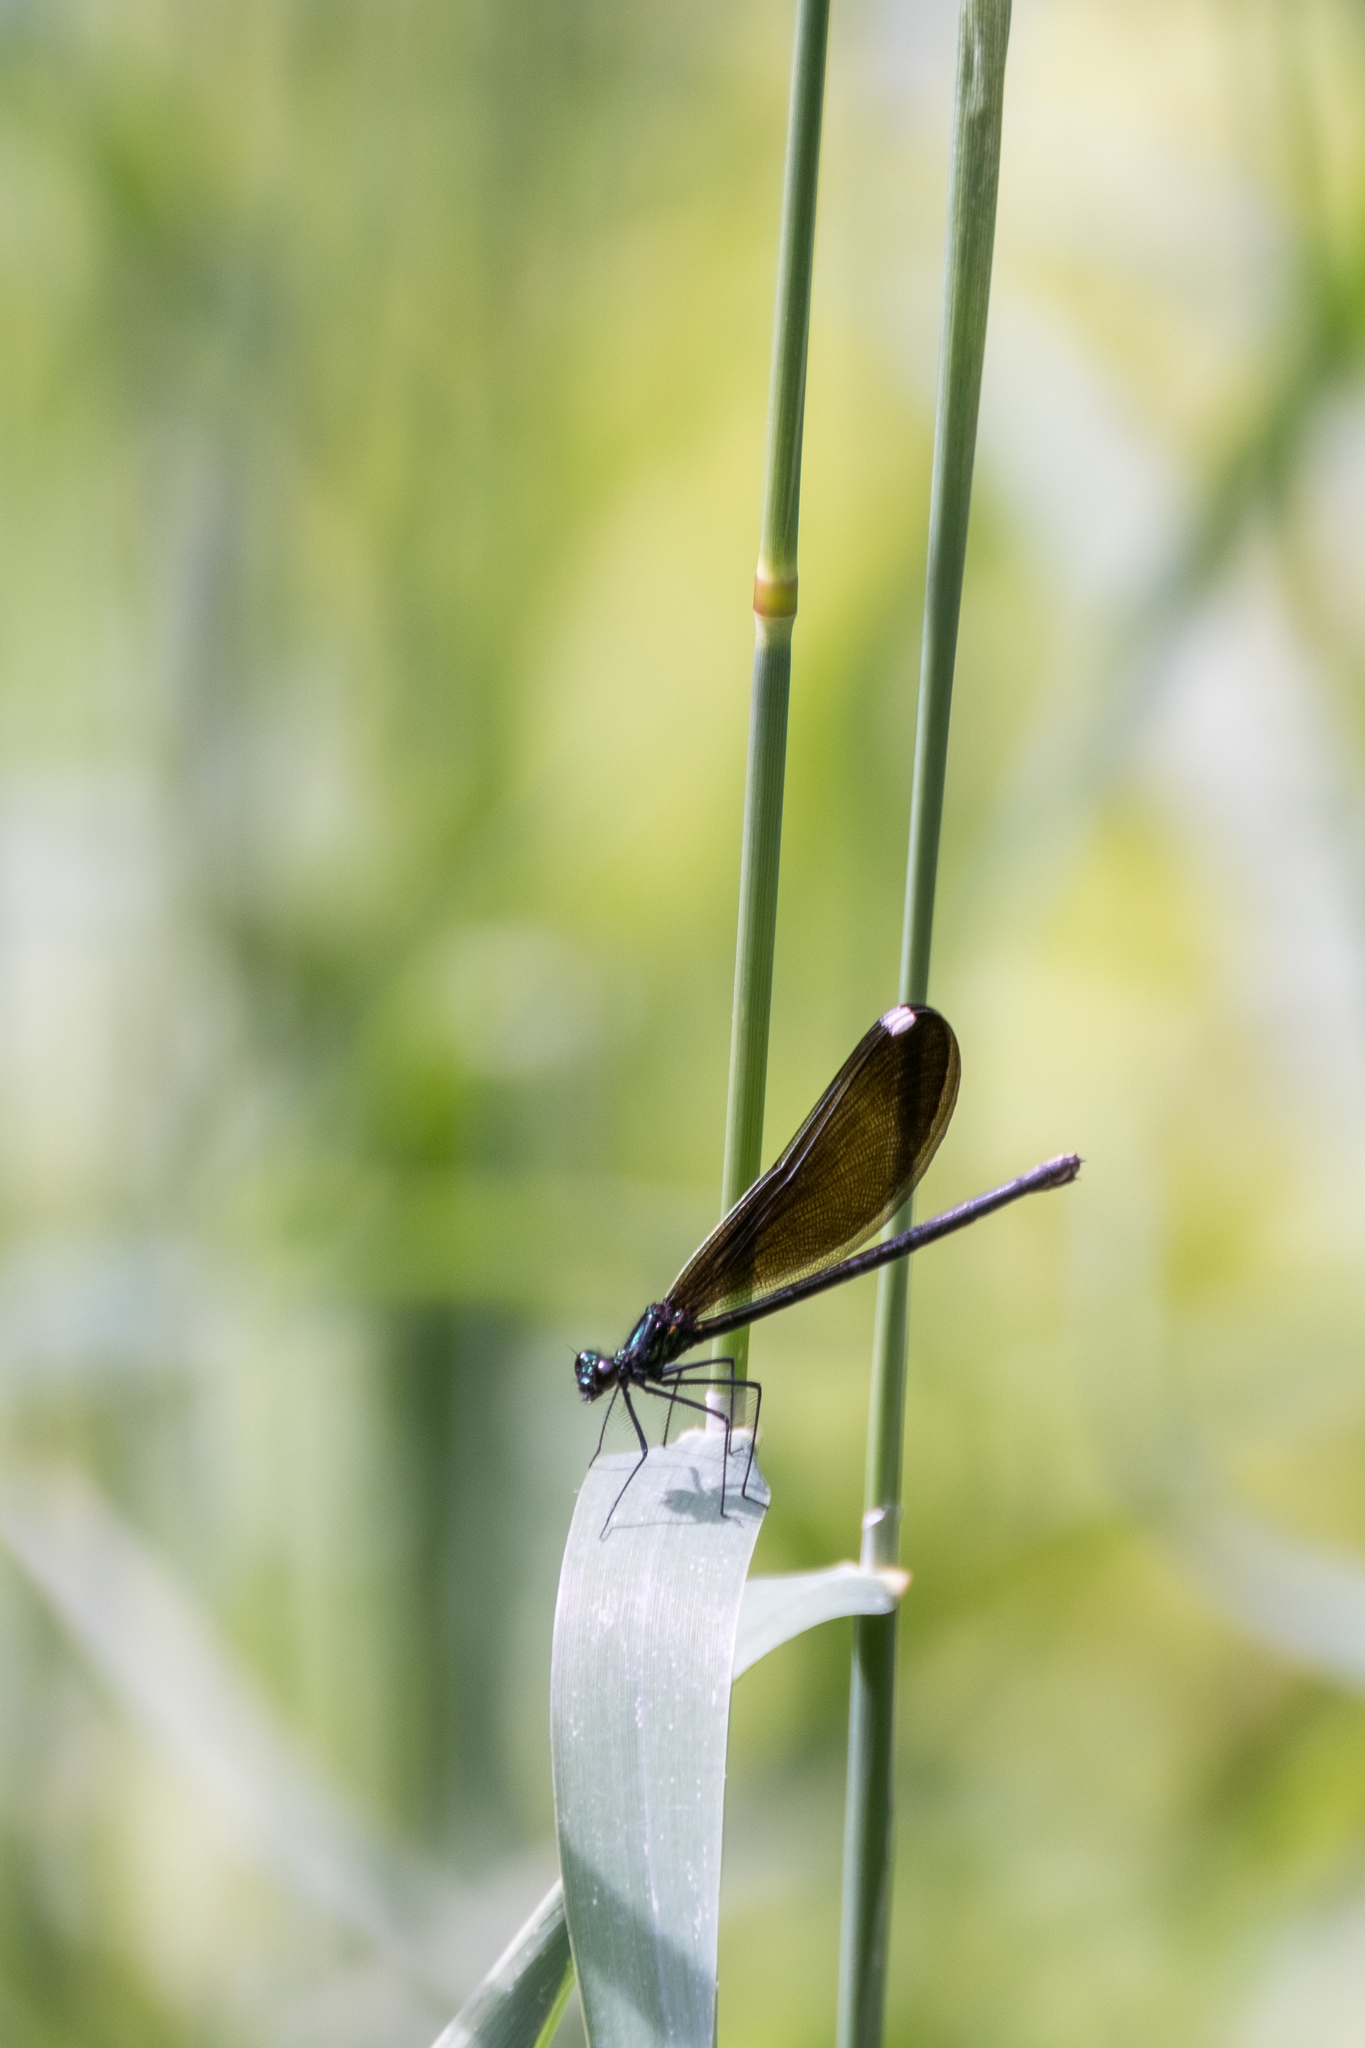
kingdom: Animalia
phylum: Arthropoda
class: Insecta
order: Odonata
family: Calopterygidae
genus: Calopteryx
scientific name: Calopteryx maculata
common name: Ebony jewelwing
